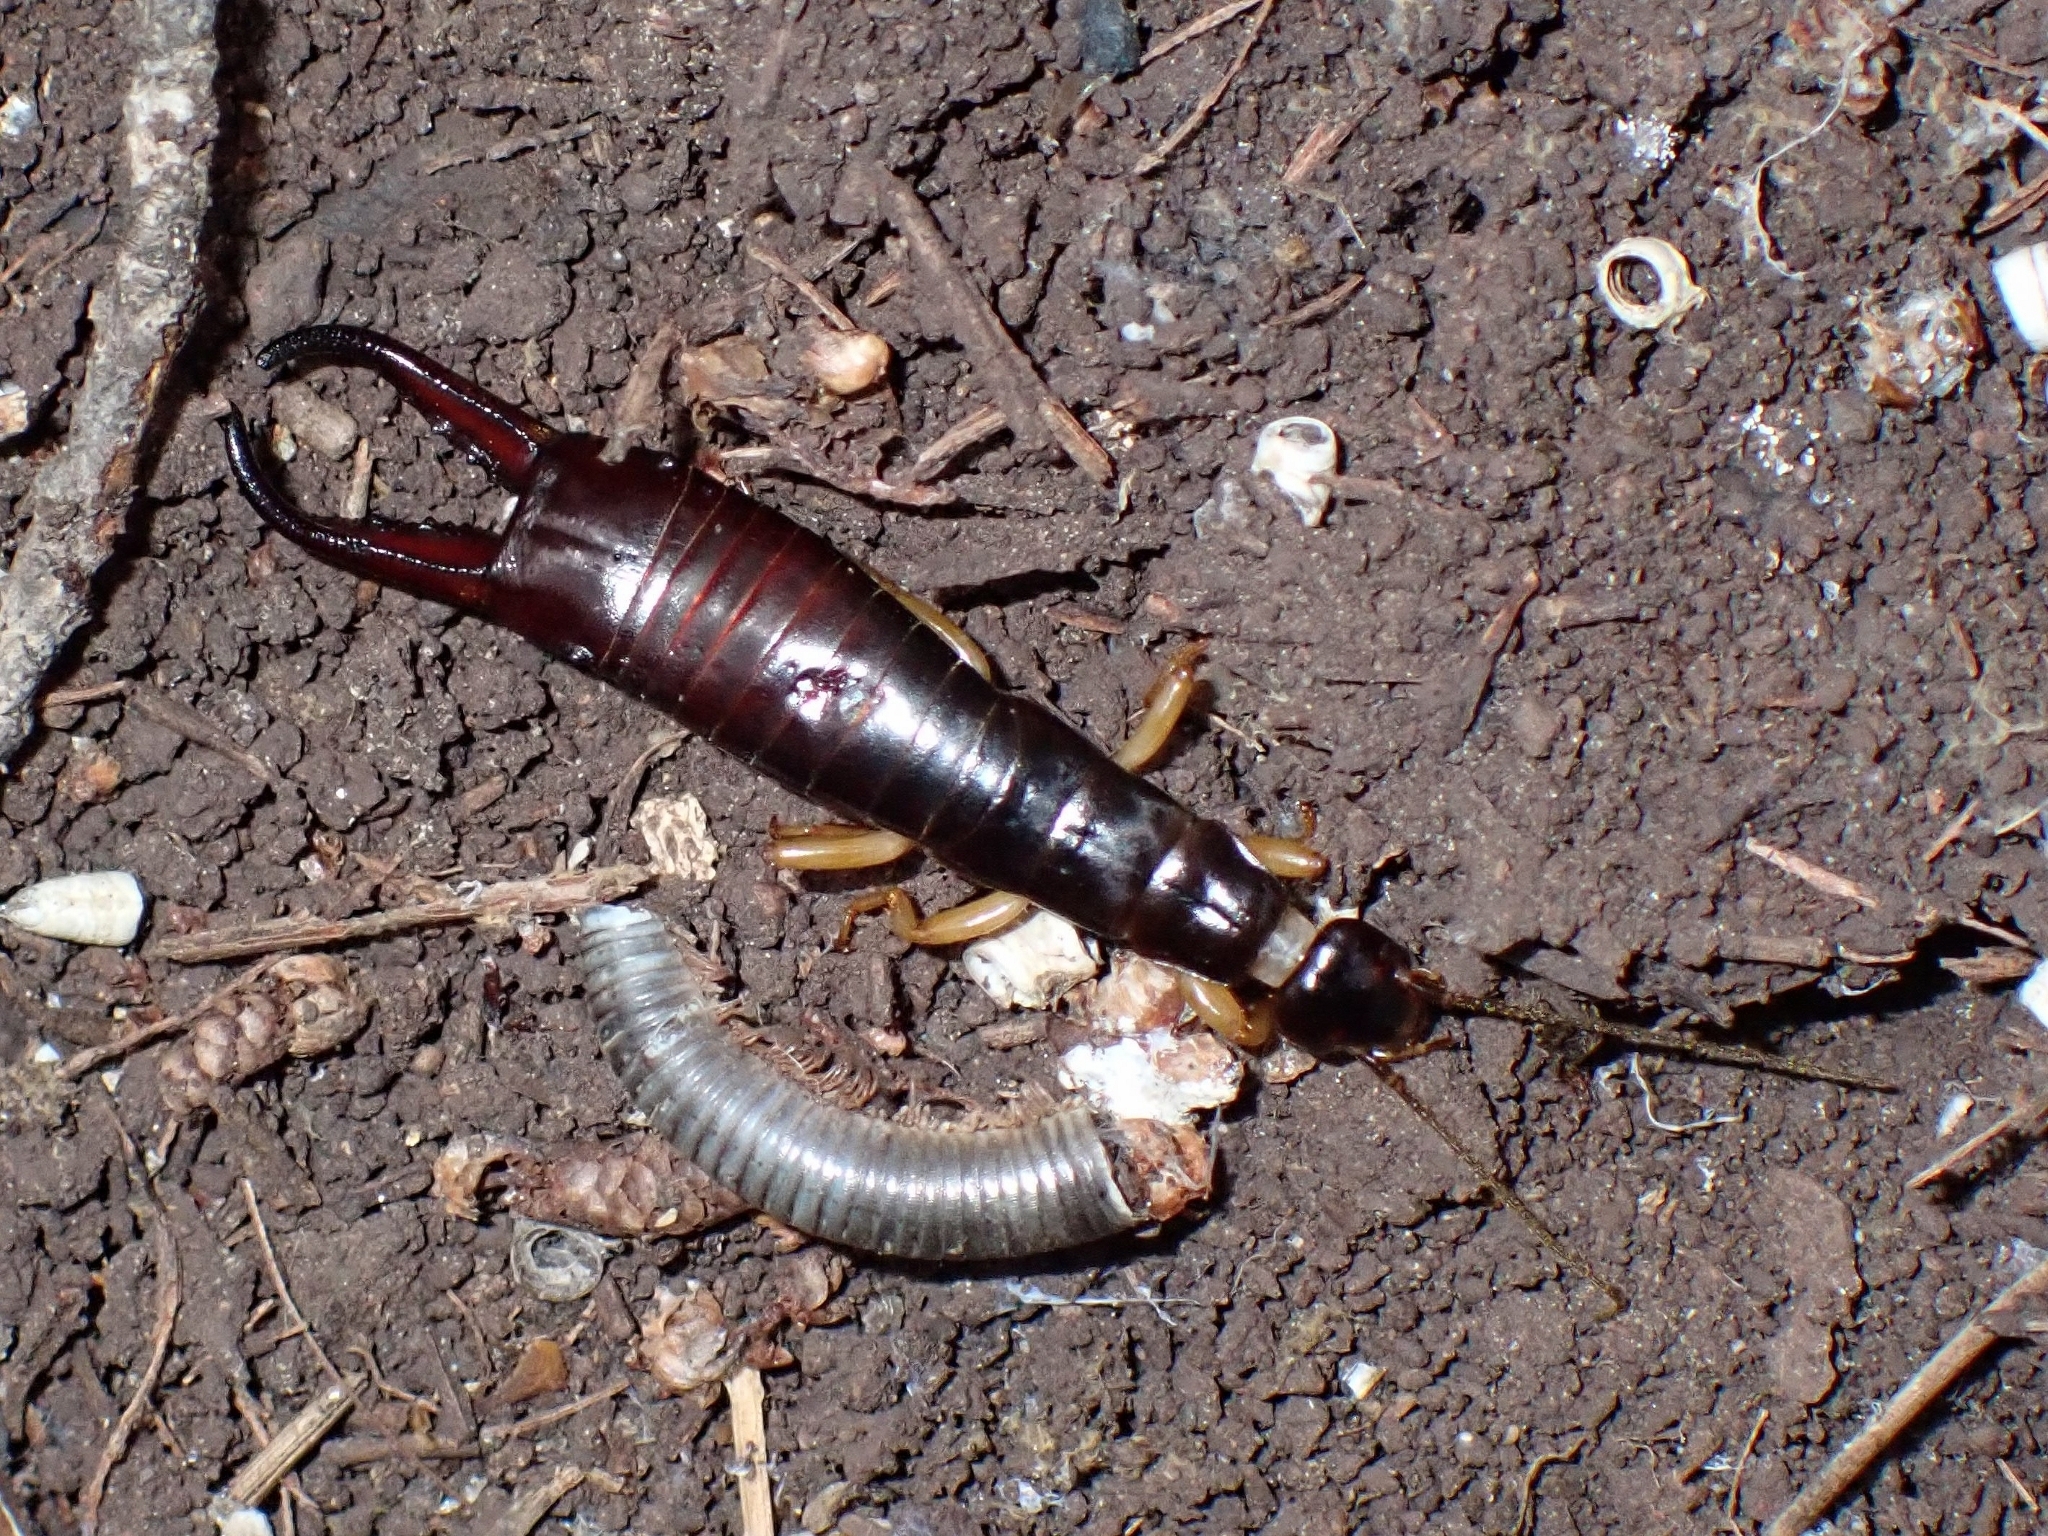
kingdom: Animalia
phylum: Arthropoda
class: Insecta
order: Dermaptera
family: Anisolabididae
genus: Canarilabis
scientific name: Canarilabis maxima
